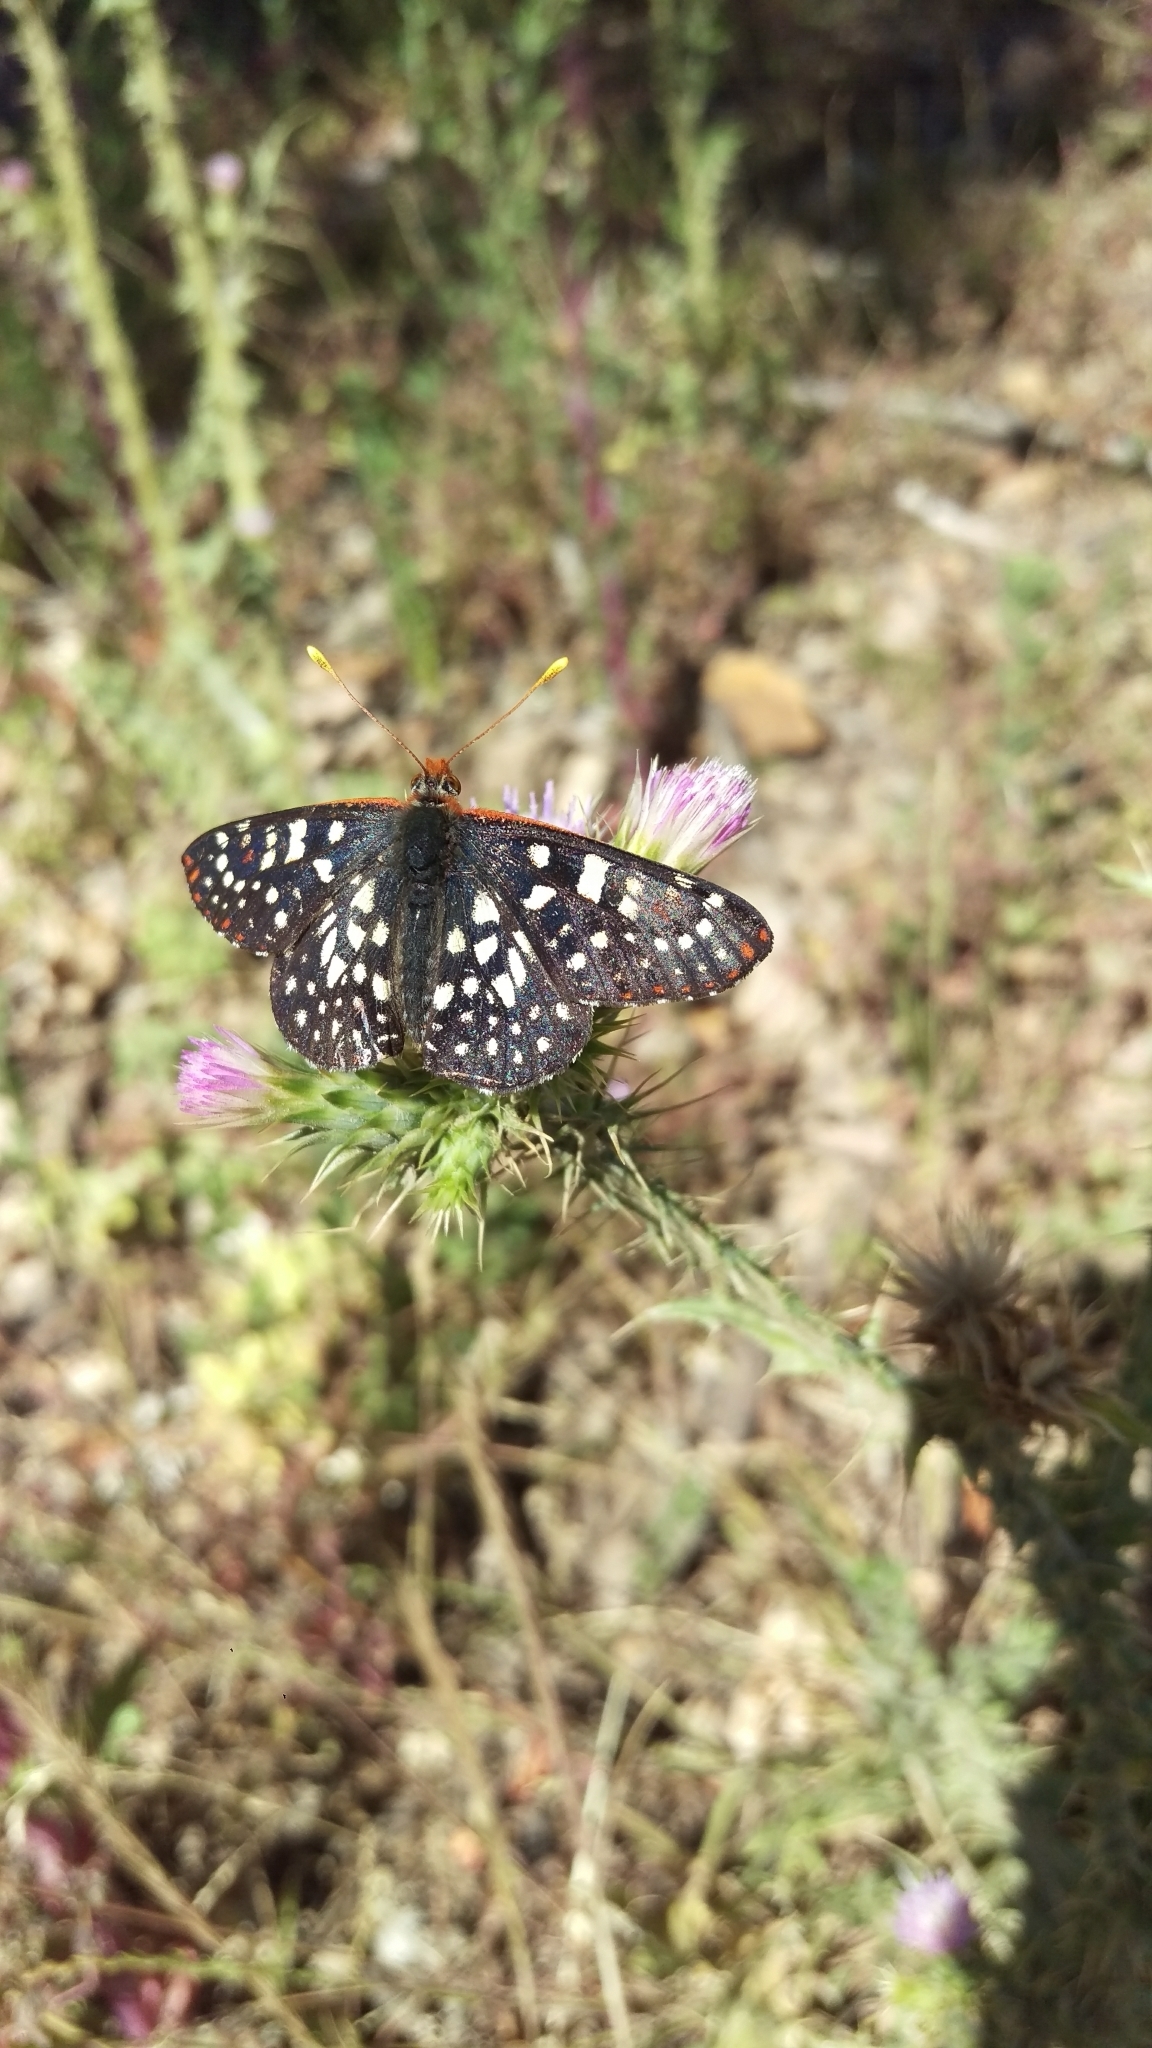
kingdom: Animalia
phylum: Arthropoda
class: Insecta
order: Lepidoptera
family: Nymphalidae
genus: Occidryas
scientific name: Occidryas chalcedona
